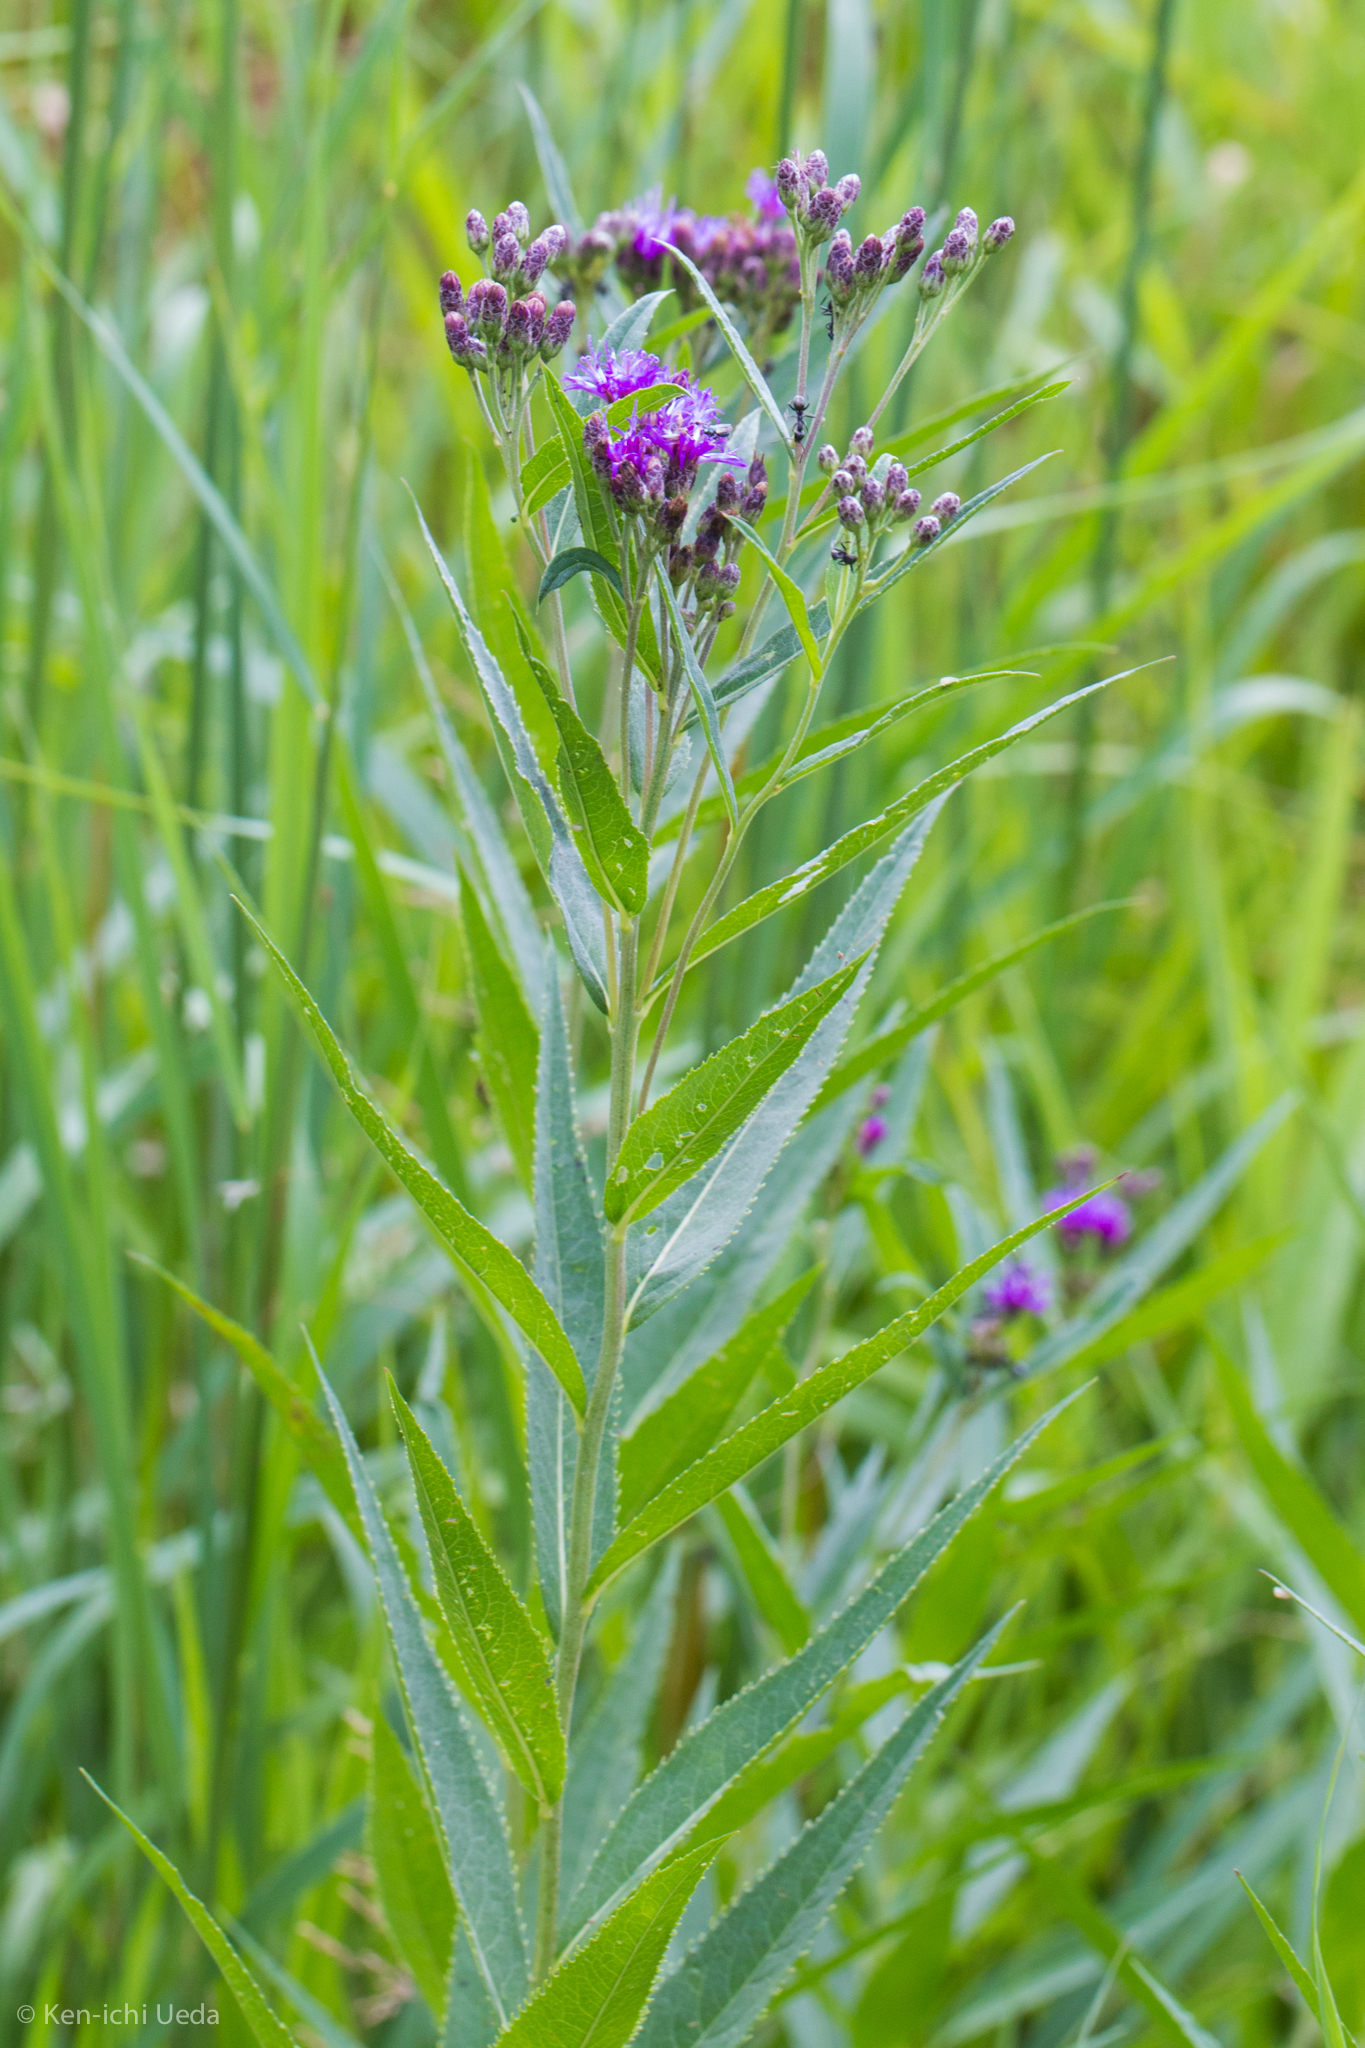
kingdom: Plantae
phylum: Tracheophyta
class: Magnoliopsida
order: Asterales
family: Asteraceae
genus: Vernonia
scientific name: Vernonia fasciculata
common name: Fascicled ironweed
